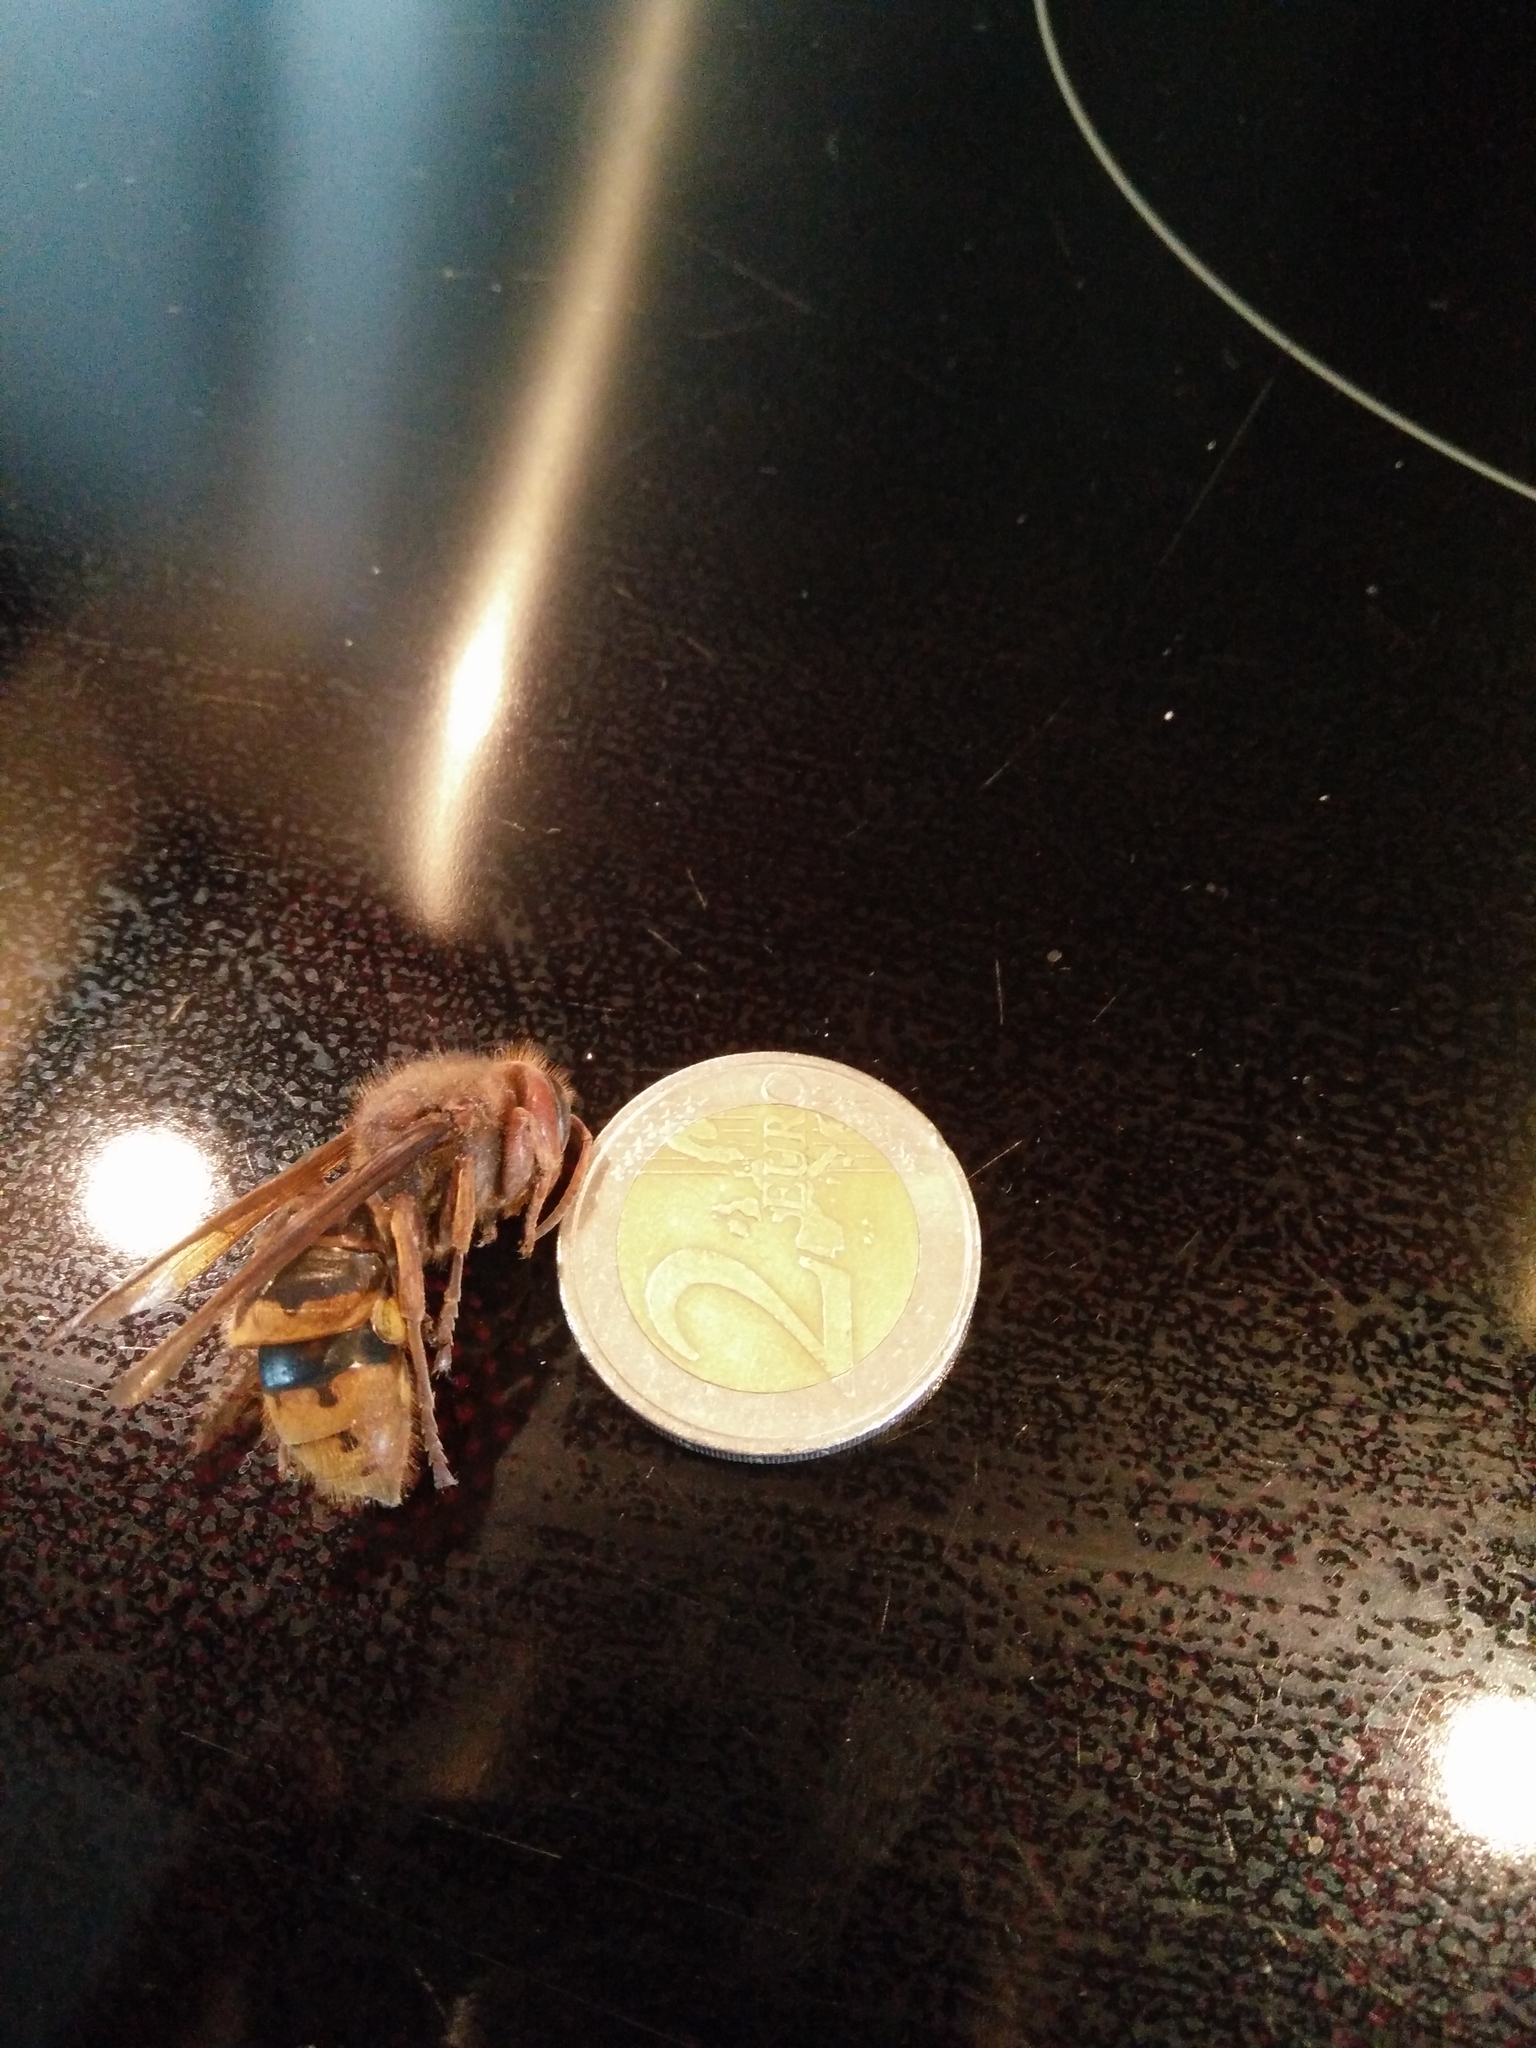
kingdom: Animalia
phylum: Arthropoda
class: Insecta
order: Hymenoptera
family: Vespidae
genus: Vespa
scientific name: Vespa crabro
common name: Hornet
